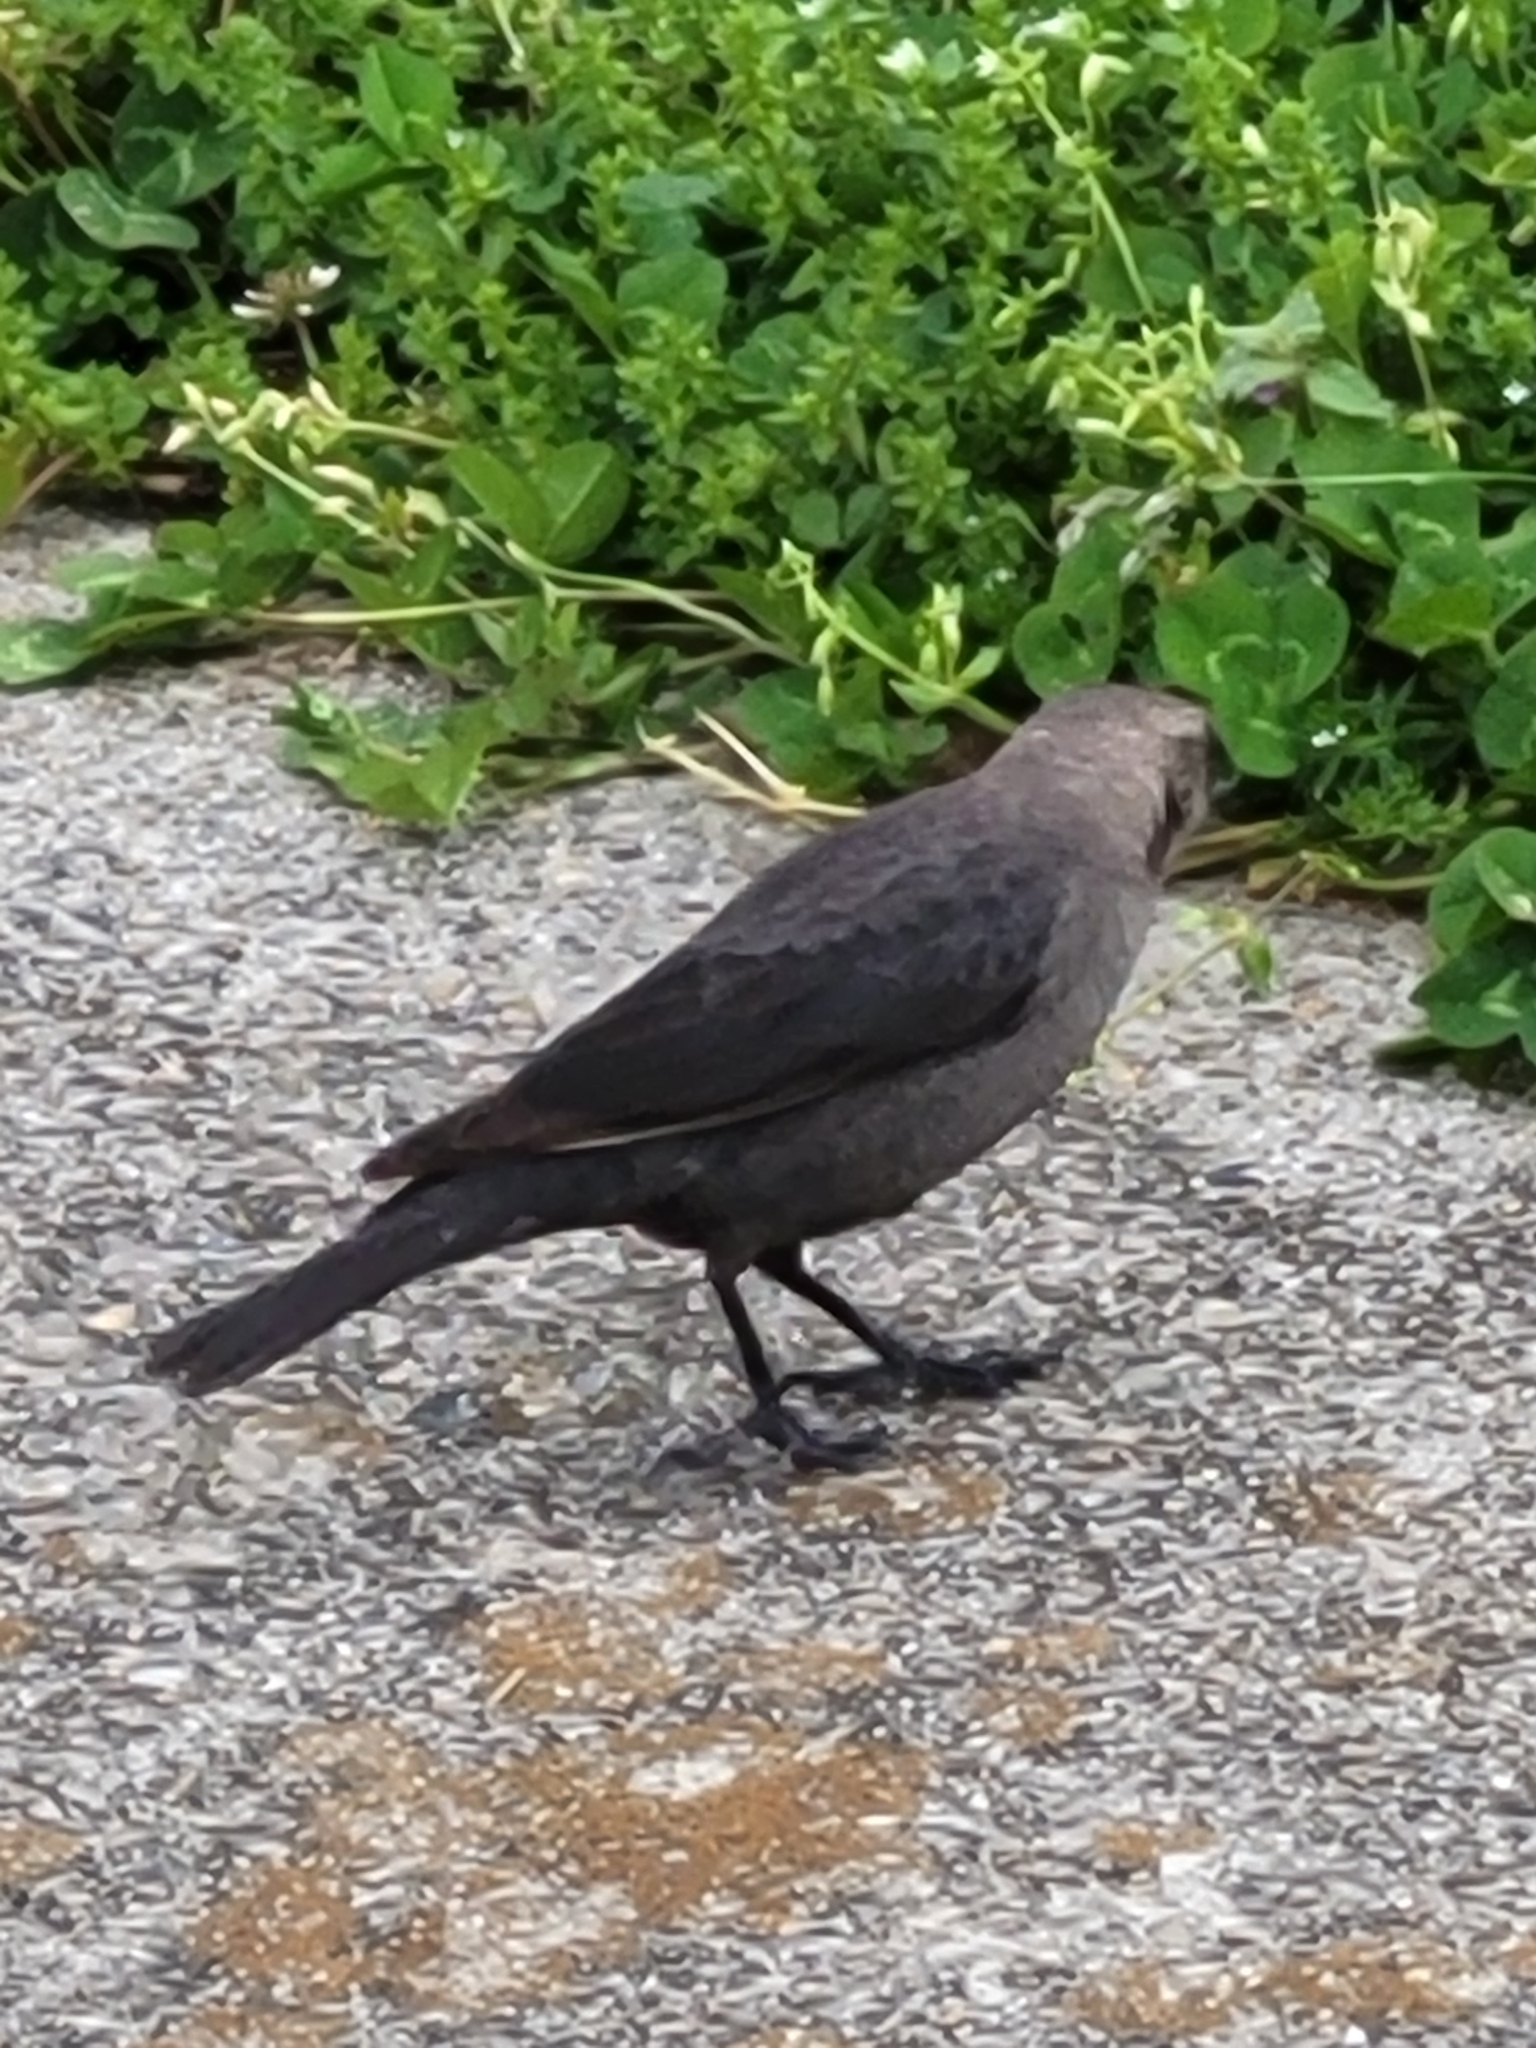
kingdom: Animalia
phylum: Chordata
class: Aves
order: Passeriformes
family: Icteridae
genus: Molothrus
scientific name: Molothrus ater
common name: Brown-headed cowbird
